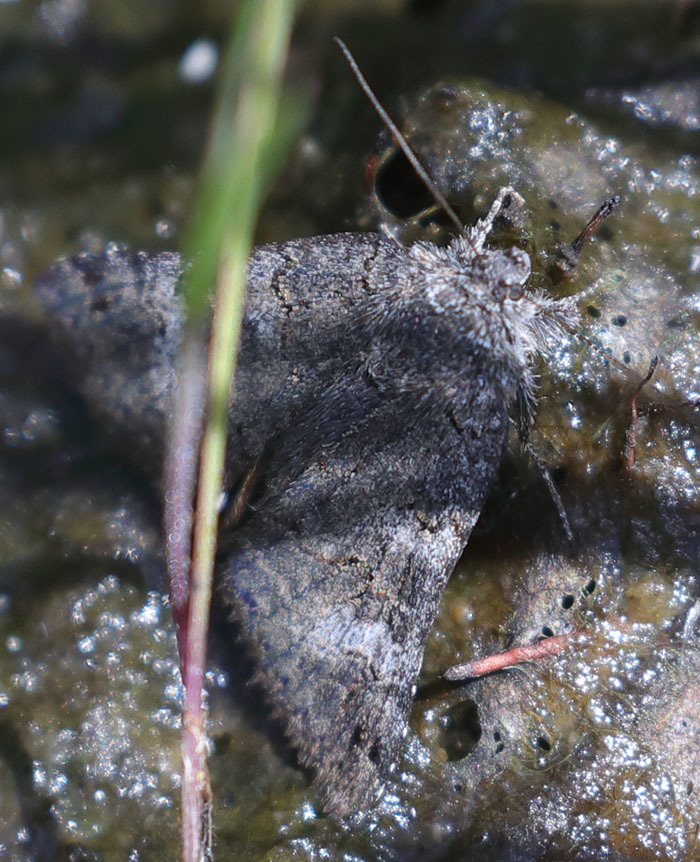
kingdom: Animalia
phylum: Arthropoda
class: Insecta
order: Lepidoptera
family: Erebidae
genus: Litocala
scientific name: Litocala sexsignata
